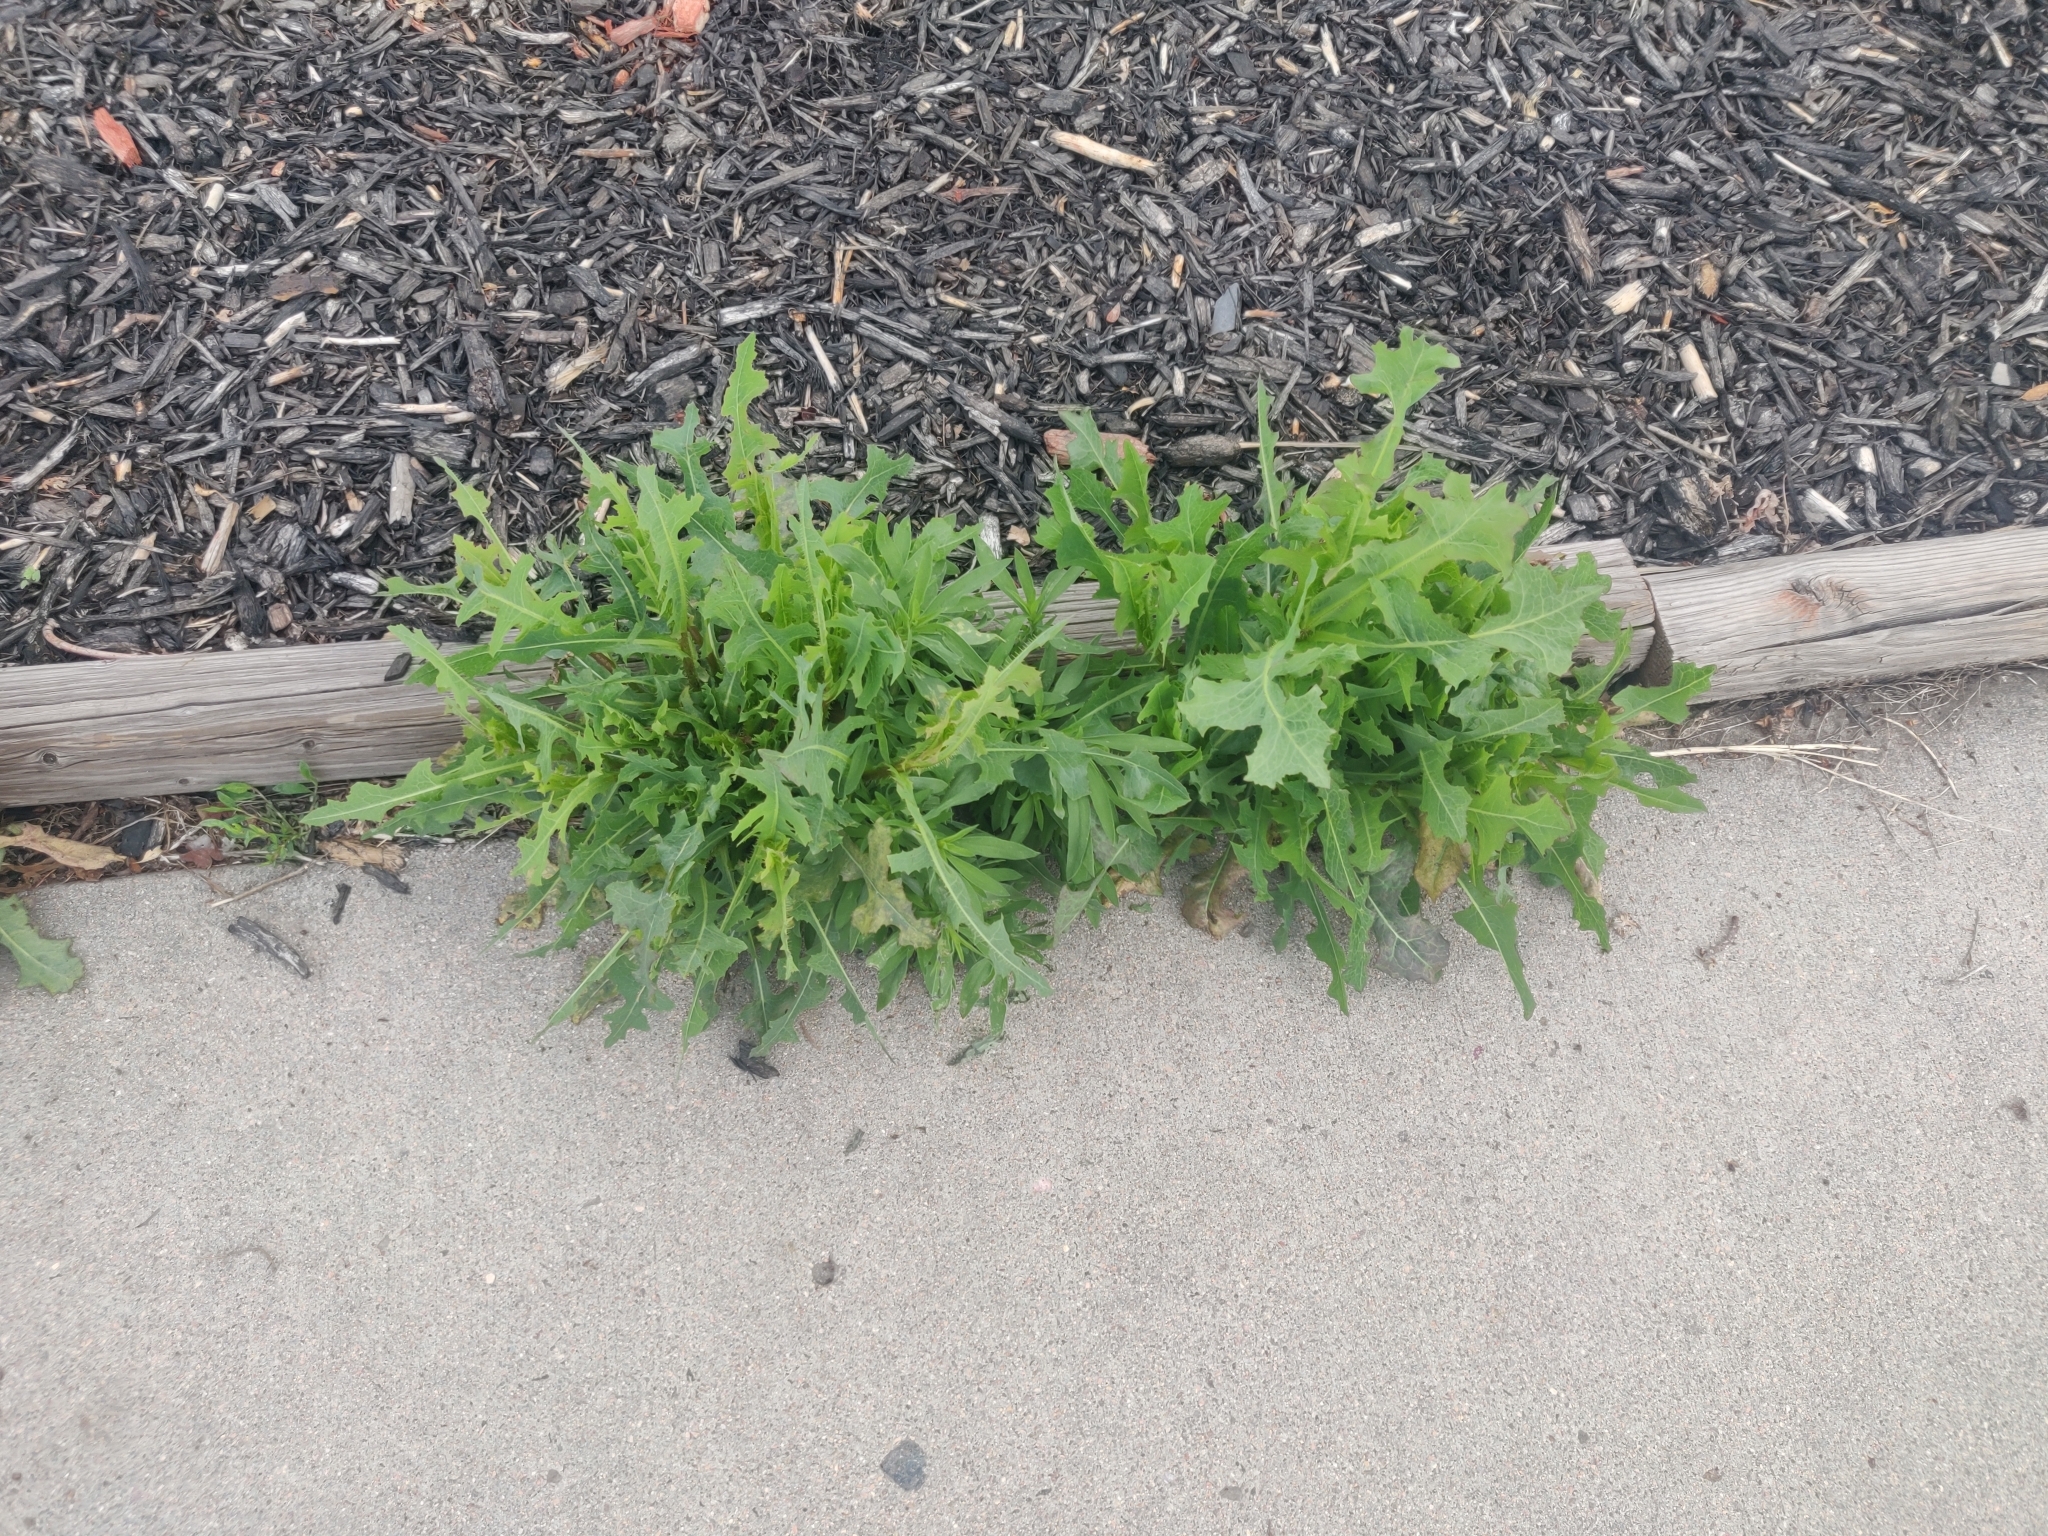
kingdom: Plantae
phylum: Tracheophyta
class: Magnoliopsida
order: Asterales
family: Asteraceae
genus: Lactuca
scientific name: Lactuca serriola
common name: Prickly lettuce
